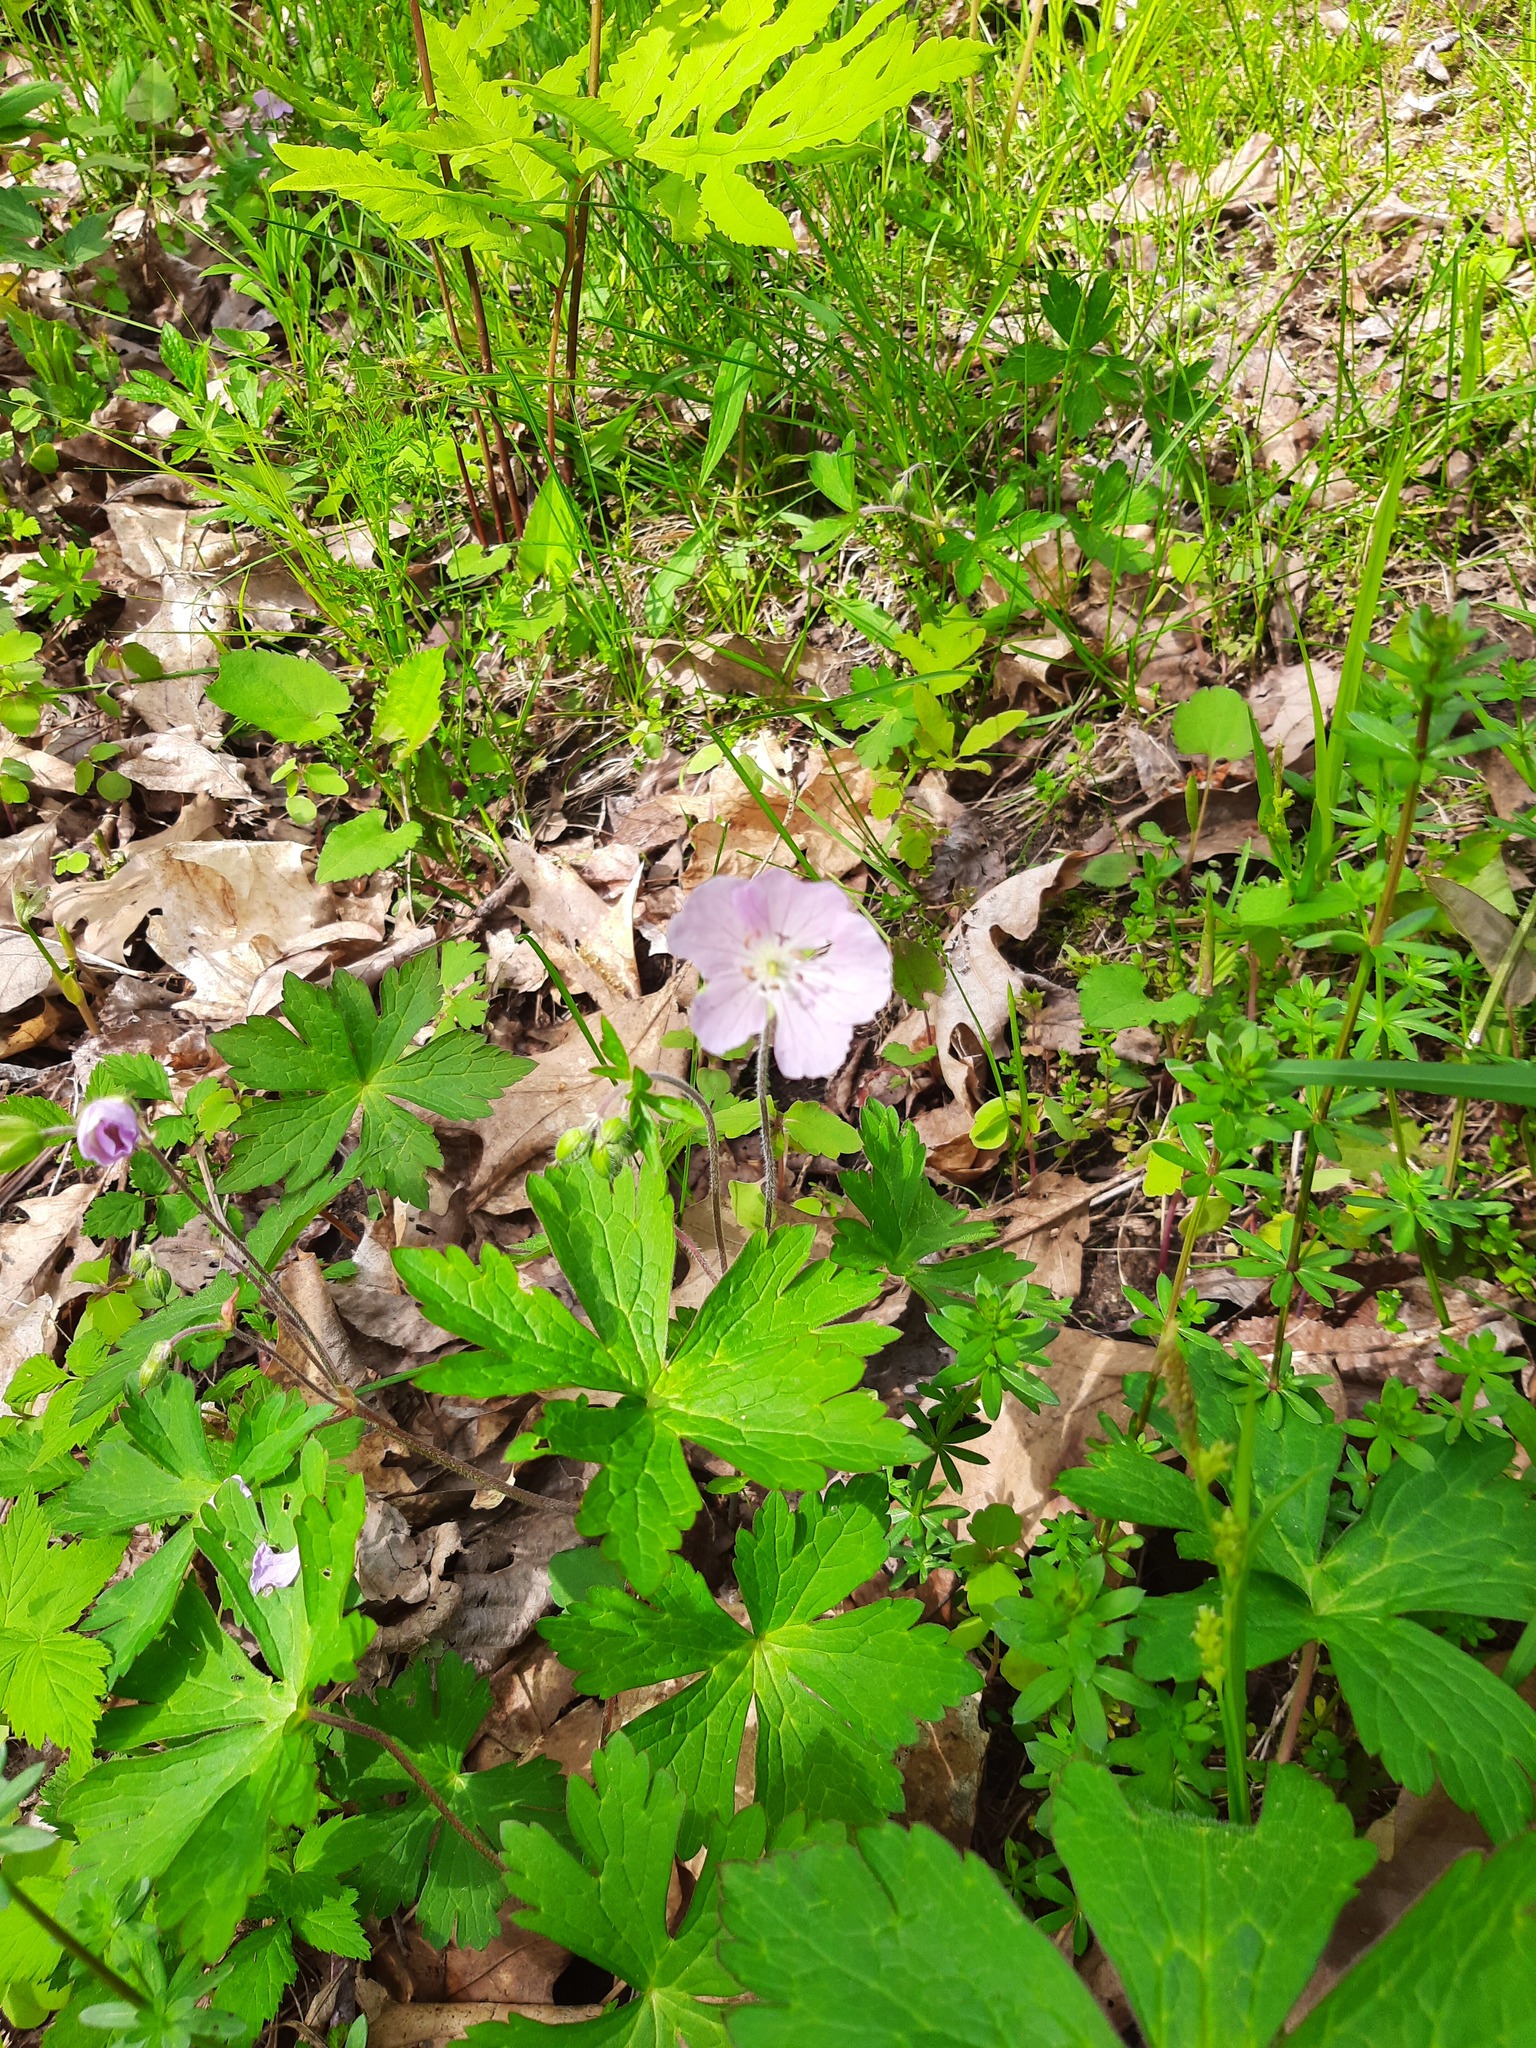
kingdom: Plantae
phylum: Tracheophyta
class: Magnoliopsida
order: Geraniales
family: Geraniaceae
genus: Geranium
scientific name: Geranium maculatum
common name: Spotted geranium
